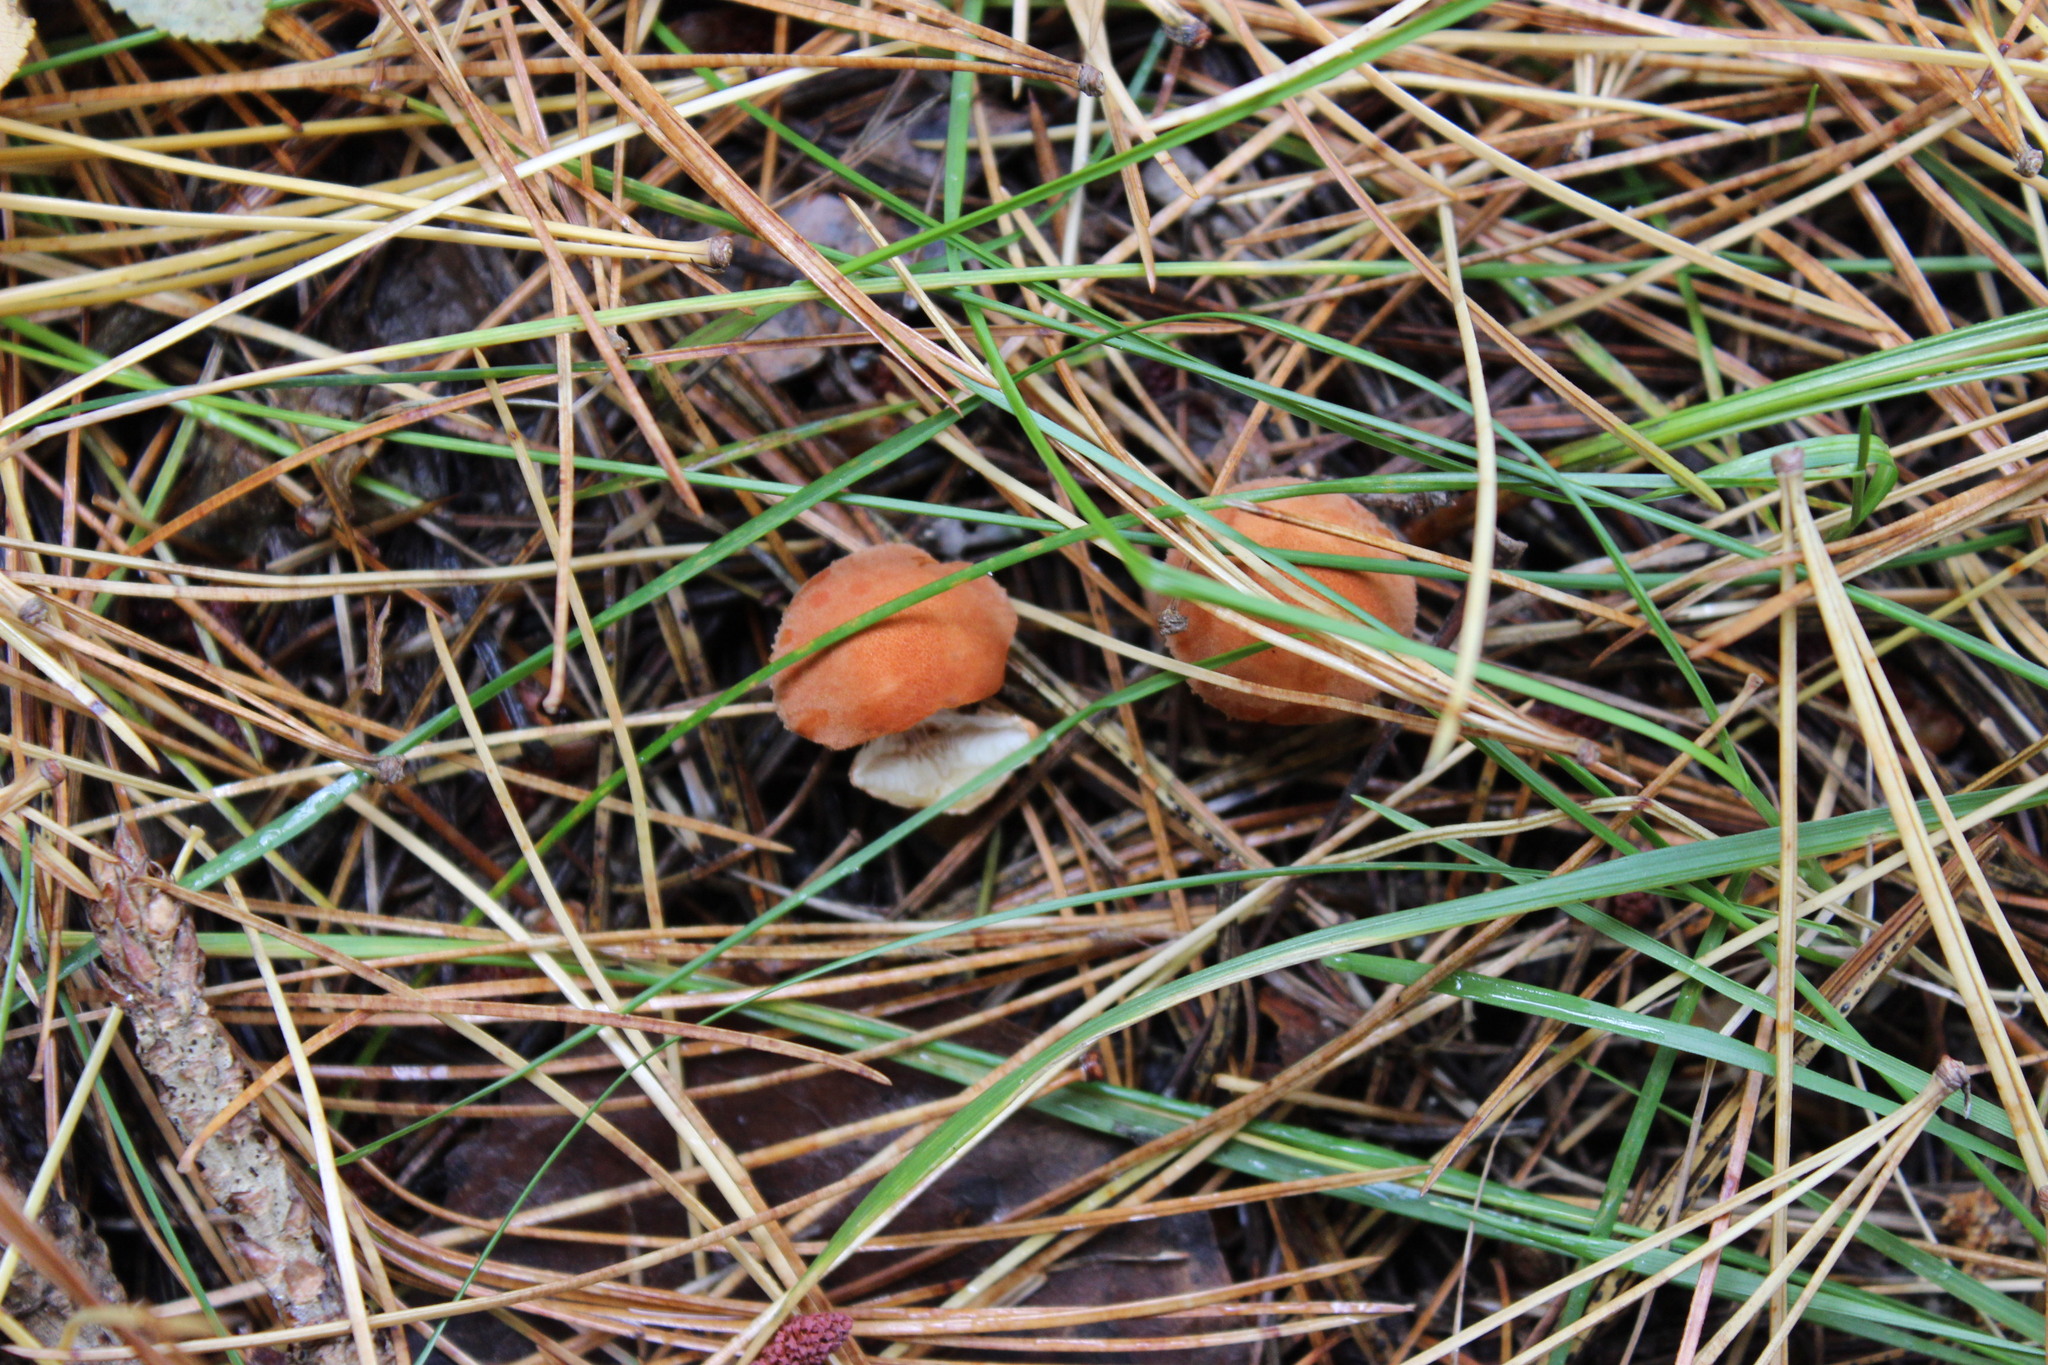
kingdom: Fungi
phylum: Basidiomycota
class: Agaricomycetes
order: Agaricales
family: Agaricaceae
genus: Cystodermella
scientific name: Cystodermella cinnabarina
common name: Cinnabar powdercap
